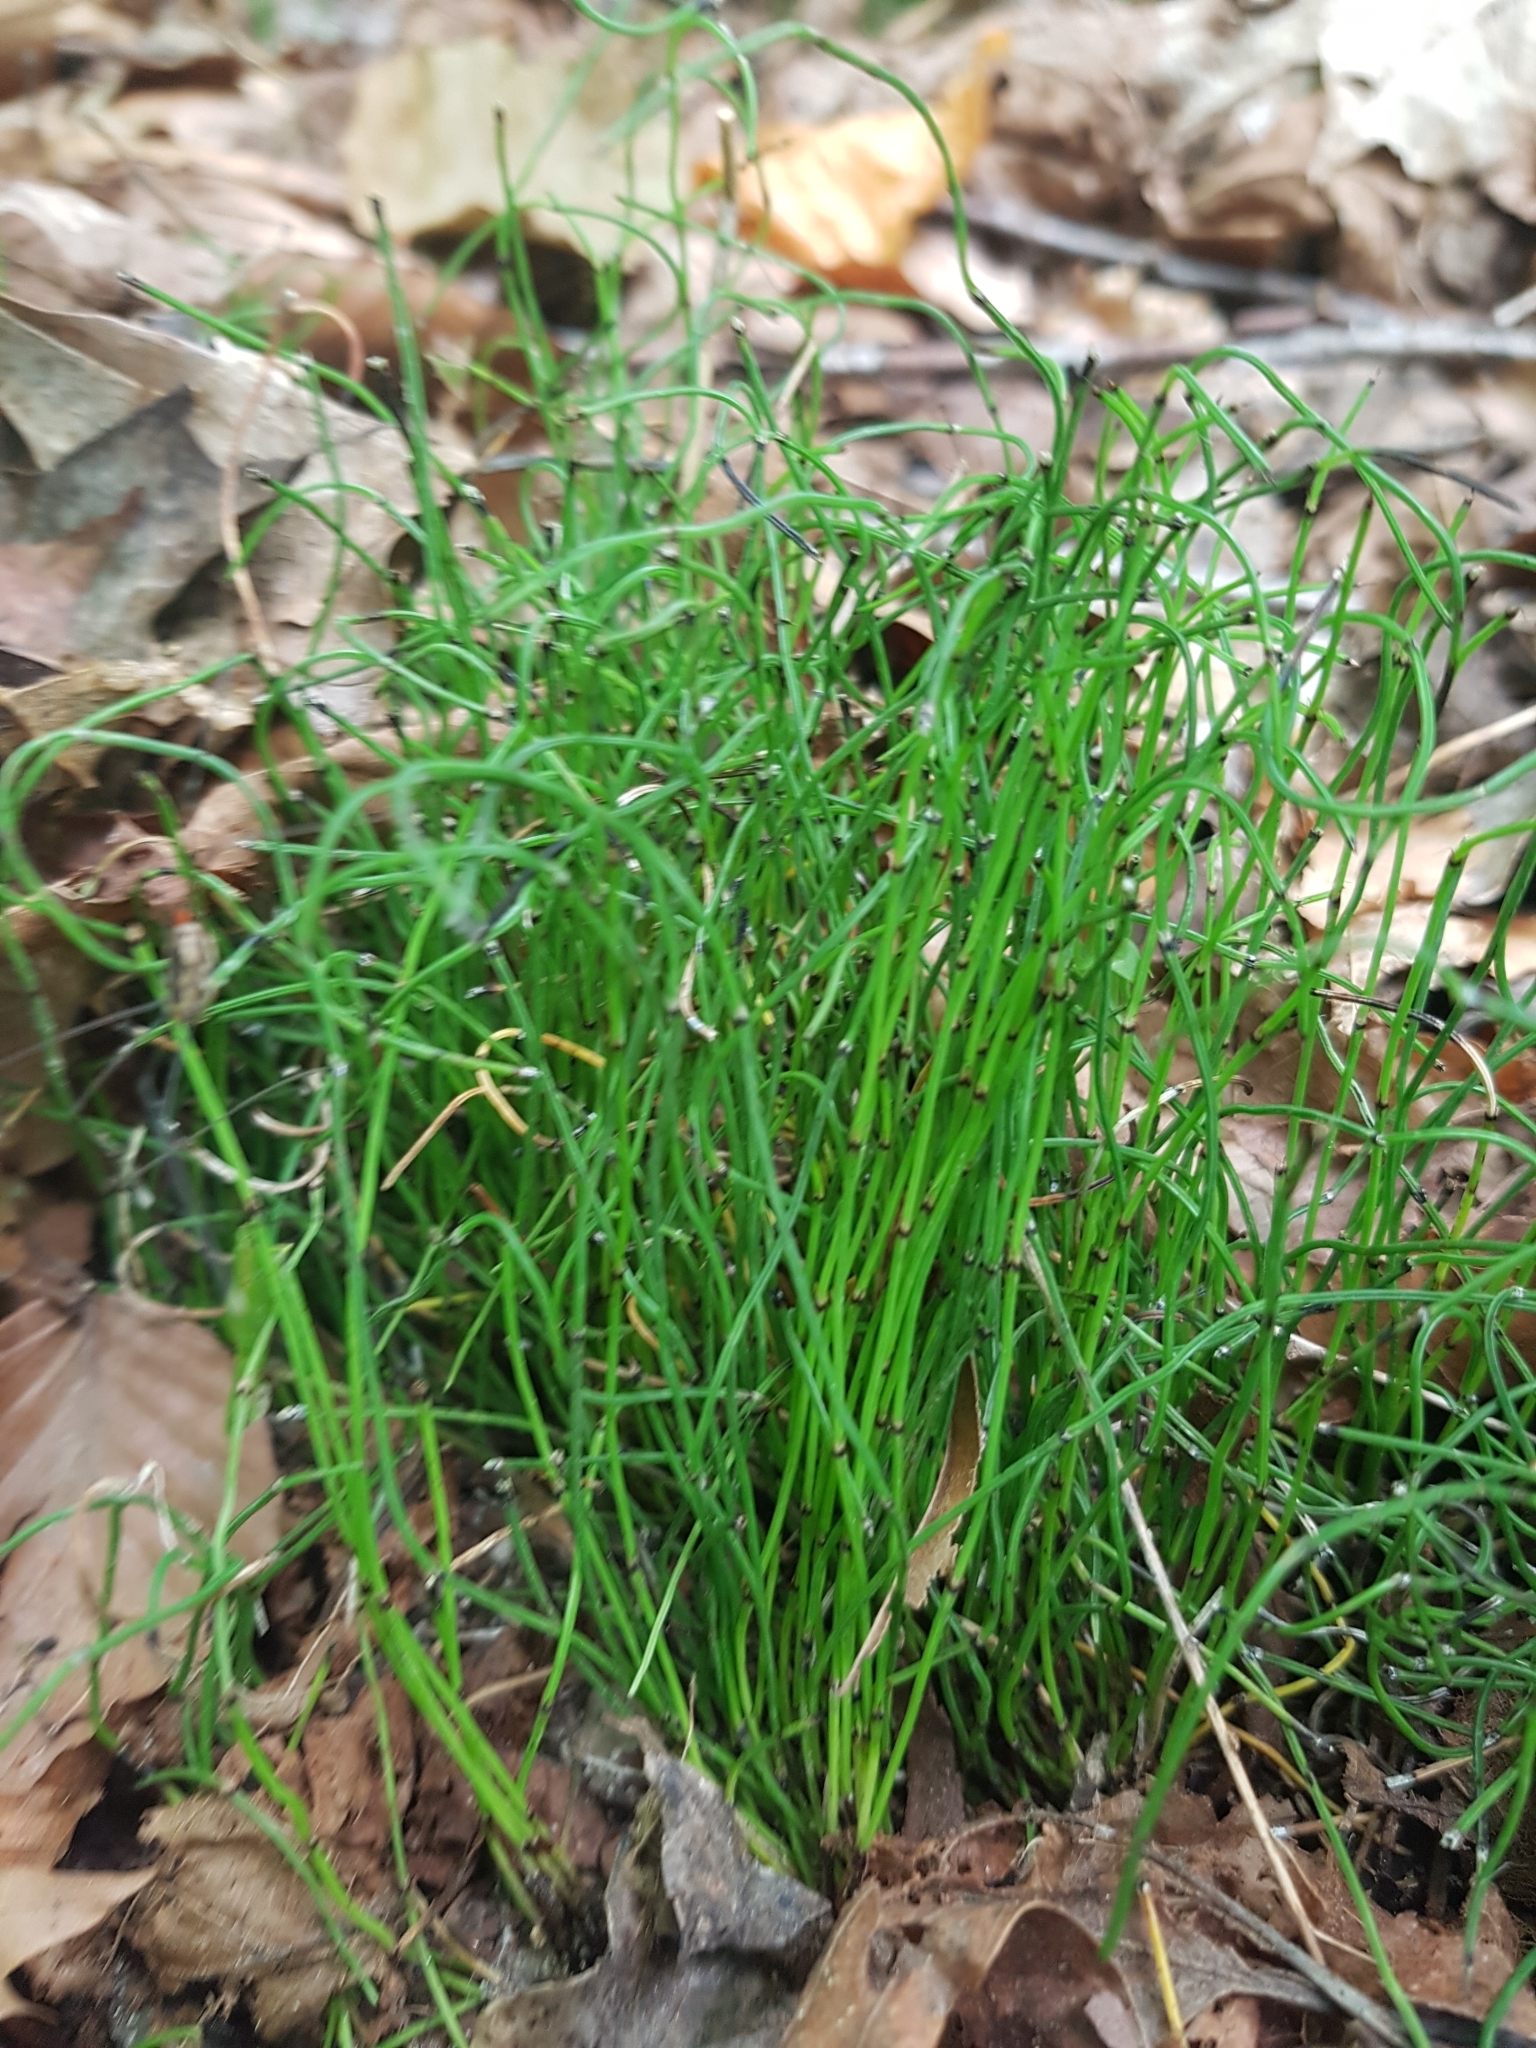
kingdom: Plantae
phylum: Tracheophyta
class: Polypodiopsida
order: Equisetales
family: Equisetaceae
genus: Equisetum
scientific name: Equisetum scirpoides
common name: Delicate horsetail
